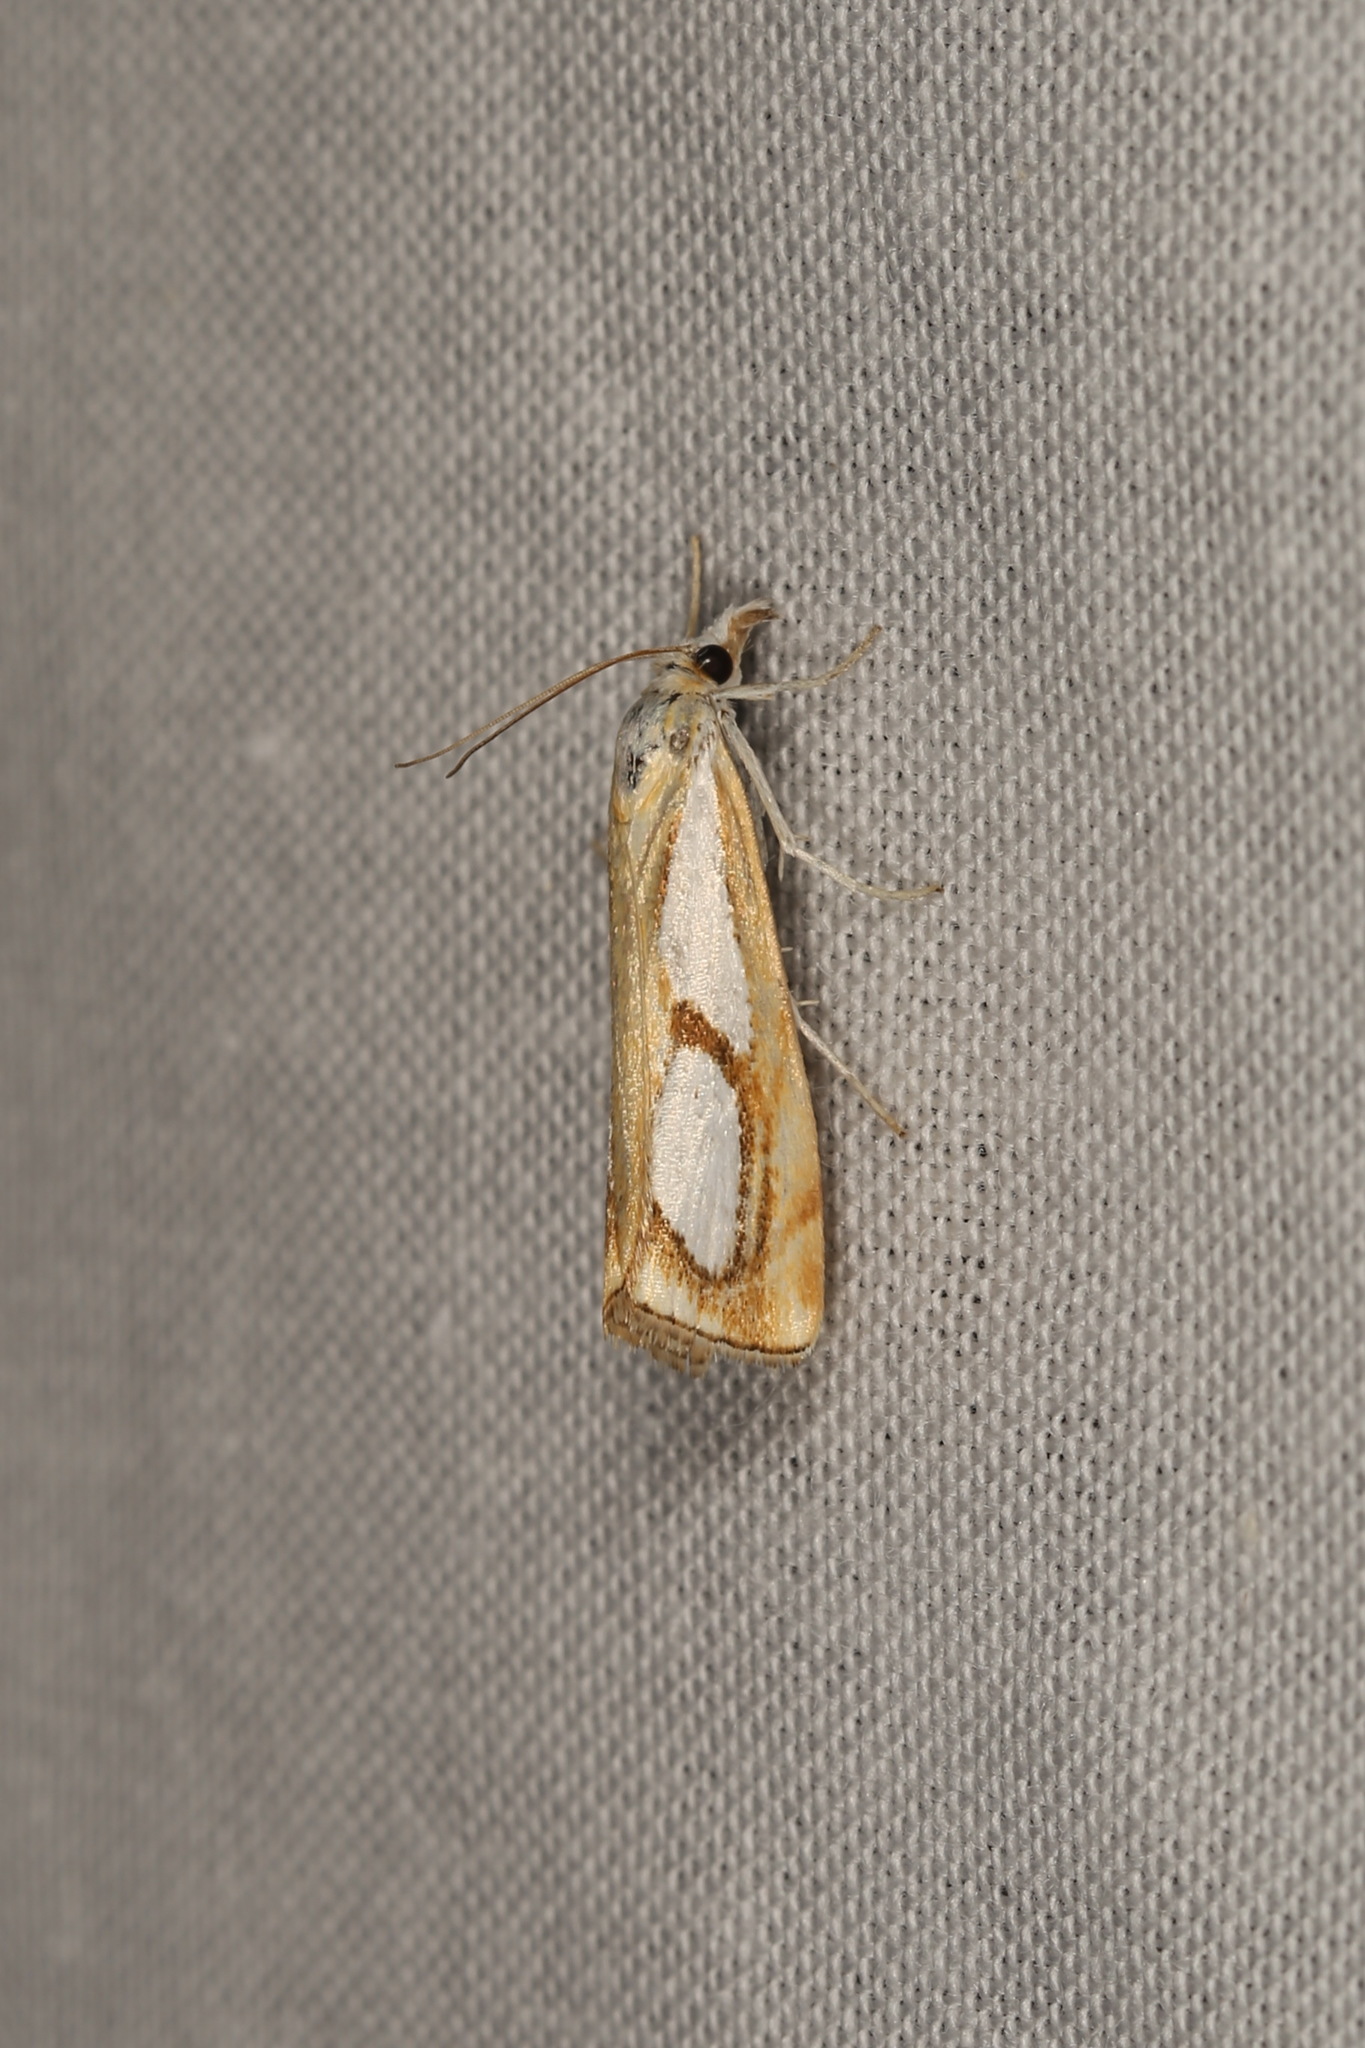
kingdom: Animalia
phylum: Arthropoda
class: Insecta
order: Lepidoptera
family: Crambidae
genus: Catoptria
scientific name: Catoptria pinella
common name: Pearl grass-veneer
